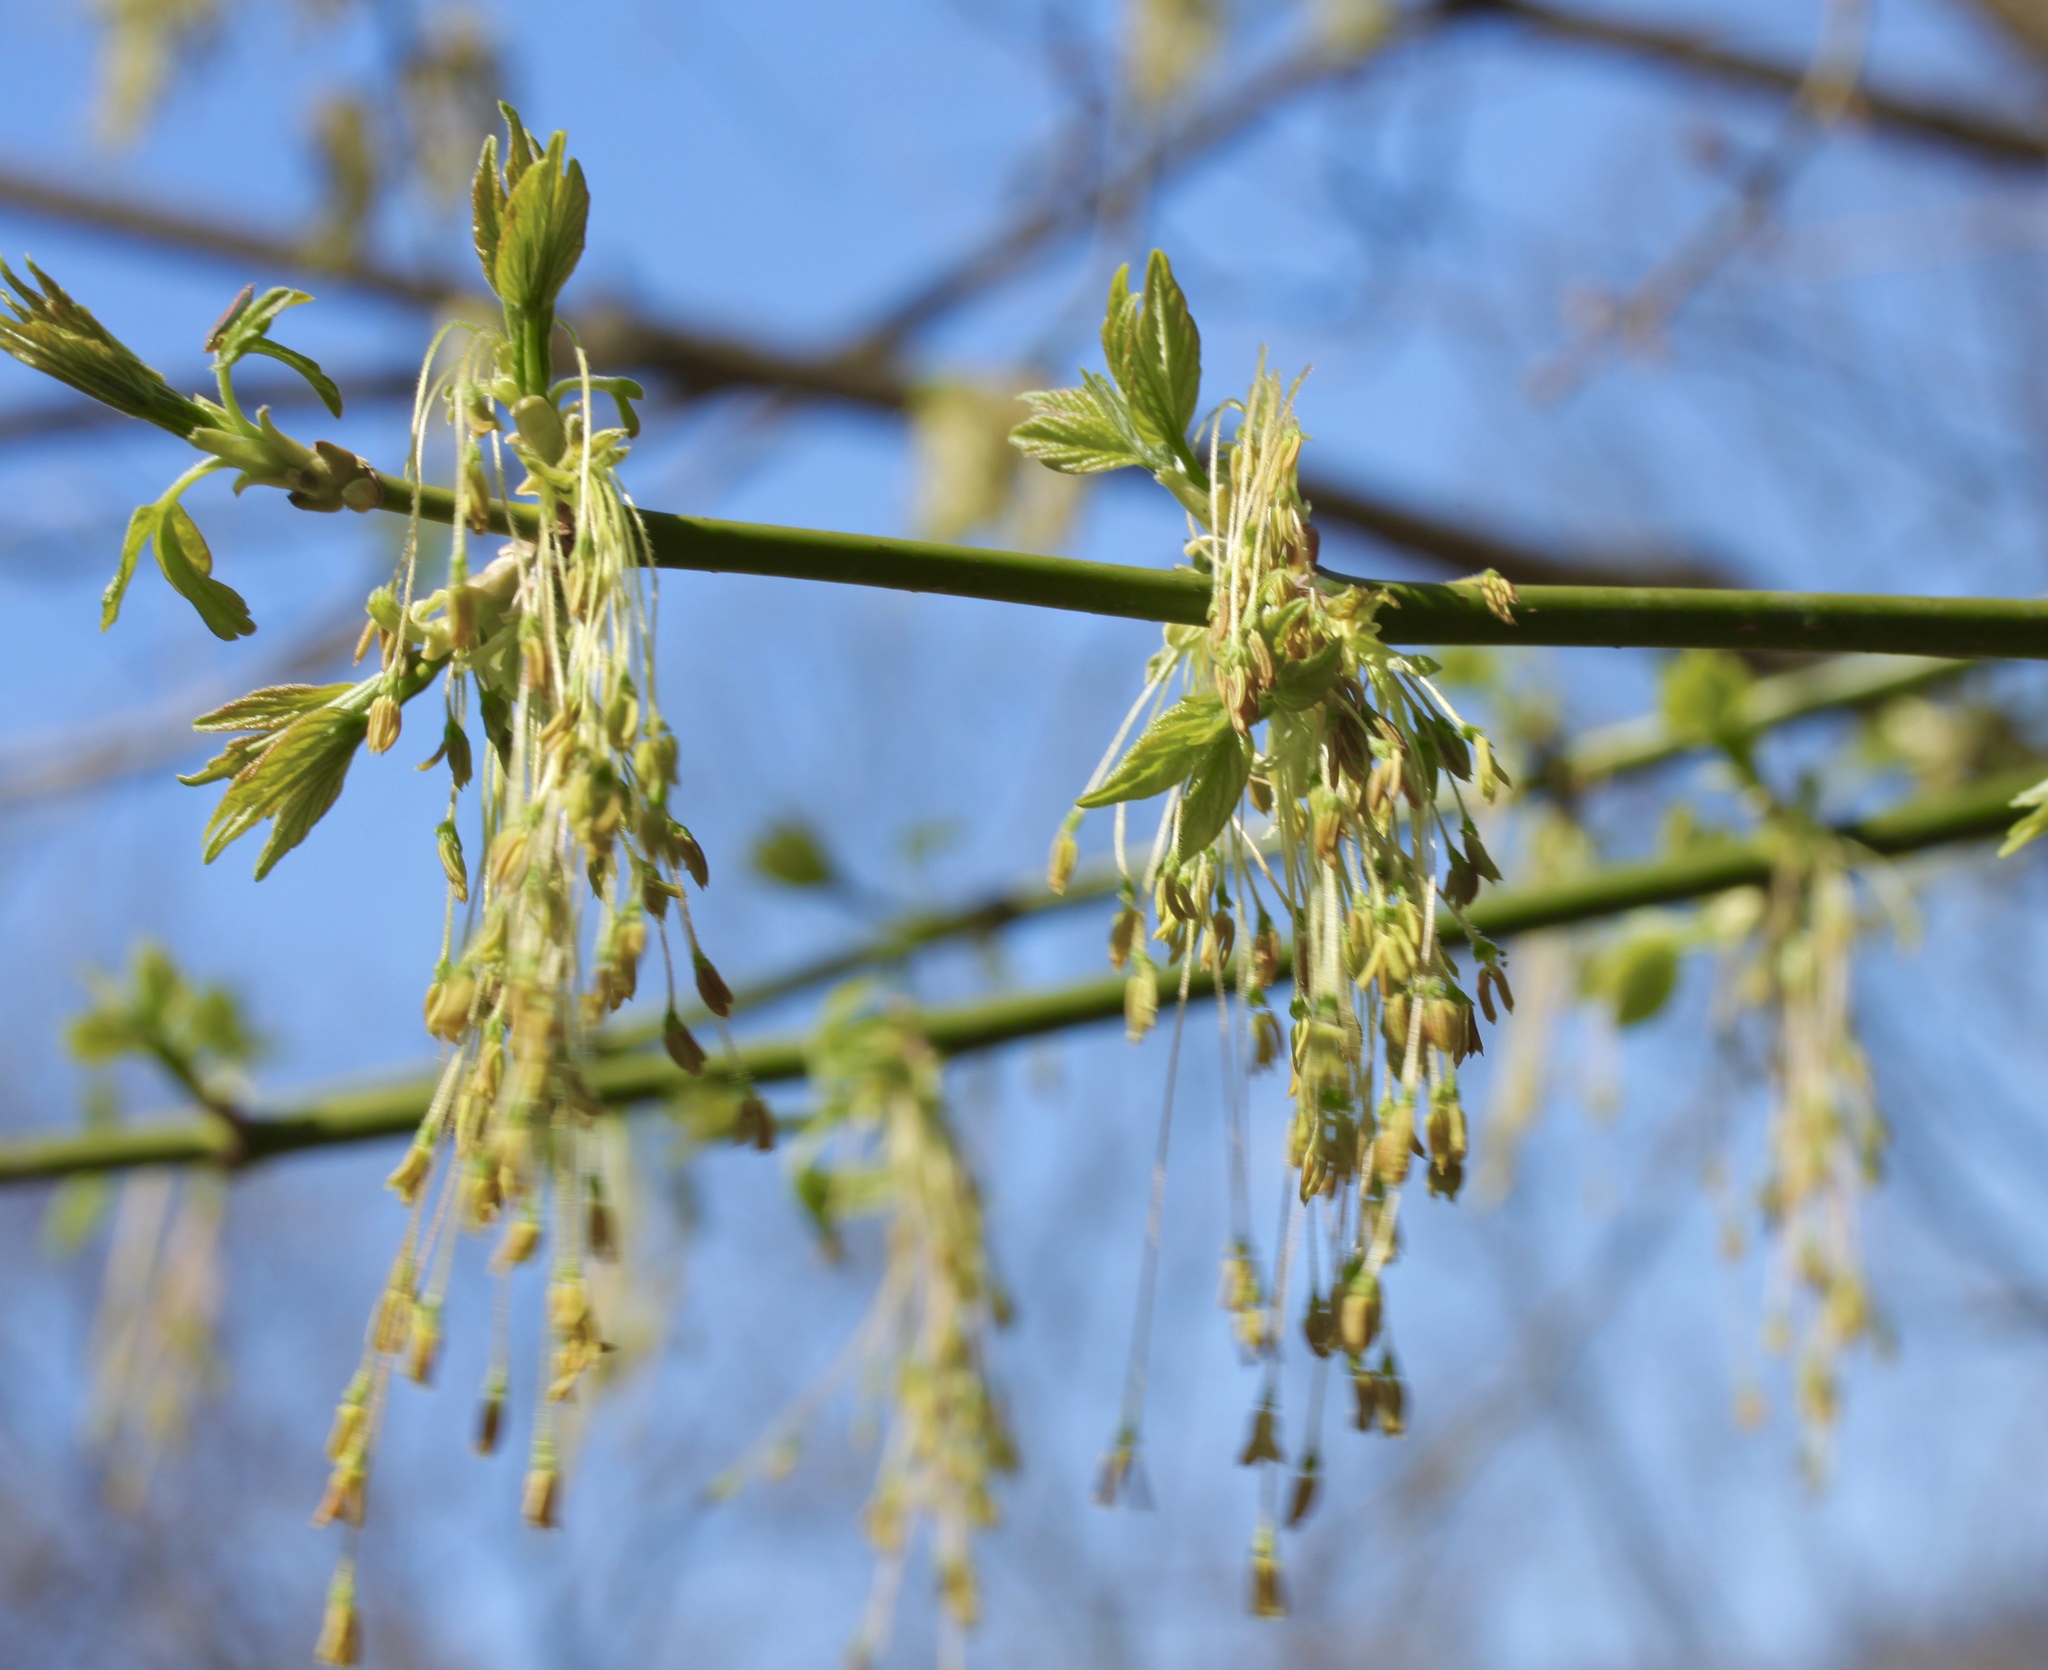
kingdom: Plantae
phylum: Tracheophyta
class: Magnoliopsida
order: Sapindales
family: Sapindaceae
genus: Acer
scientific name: Acer negundo
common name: Ashleaf maple
